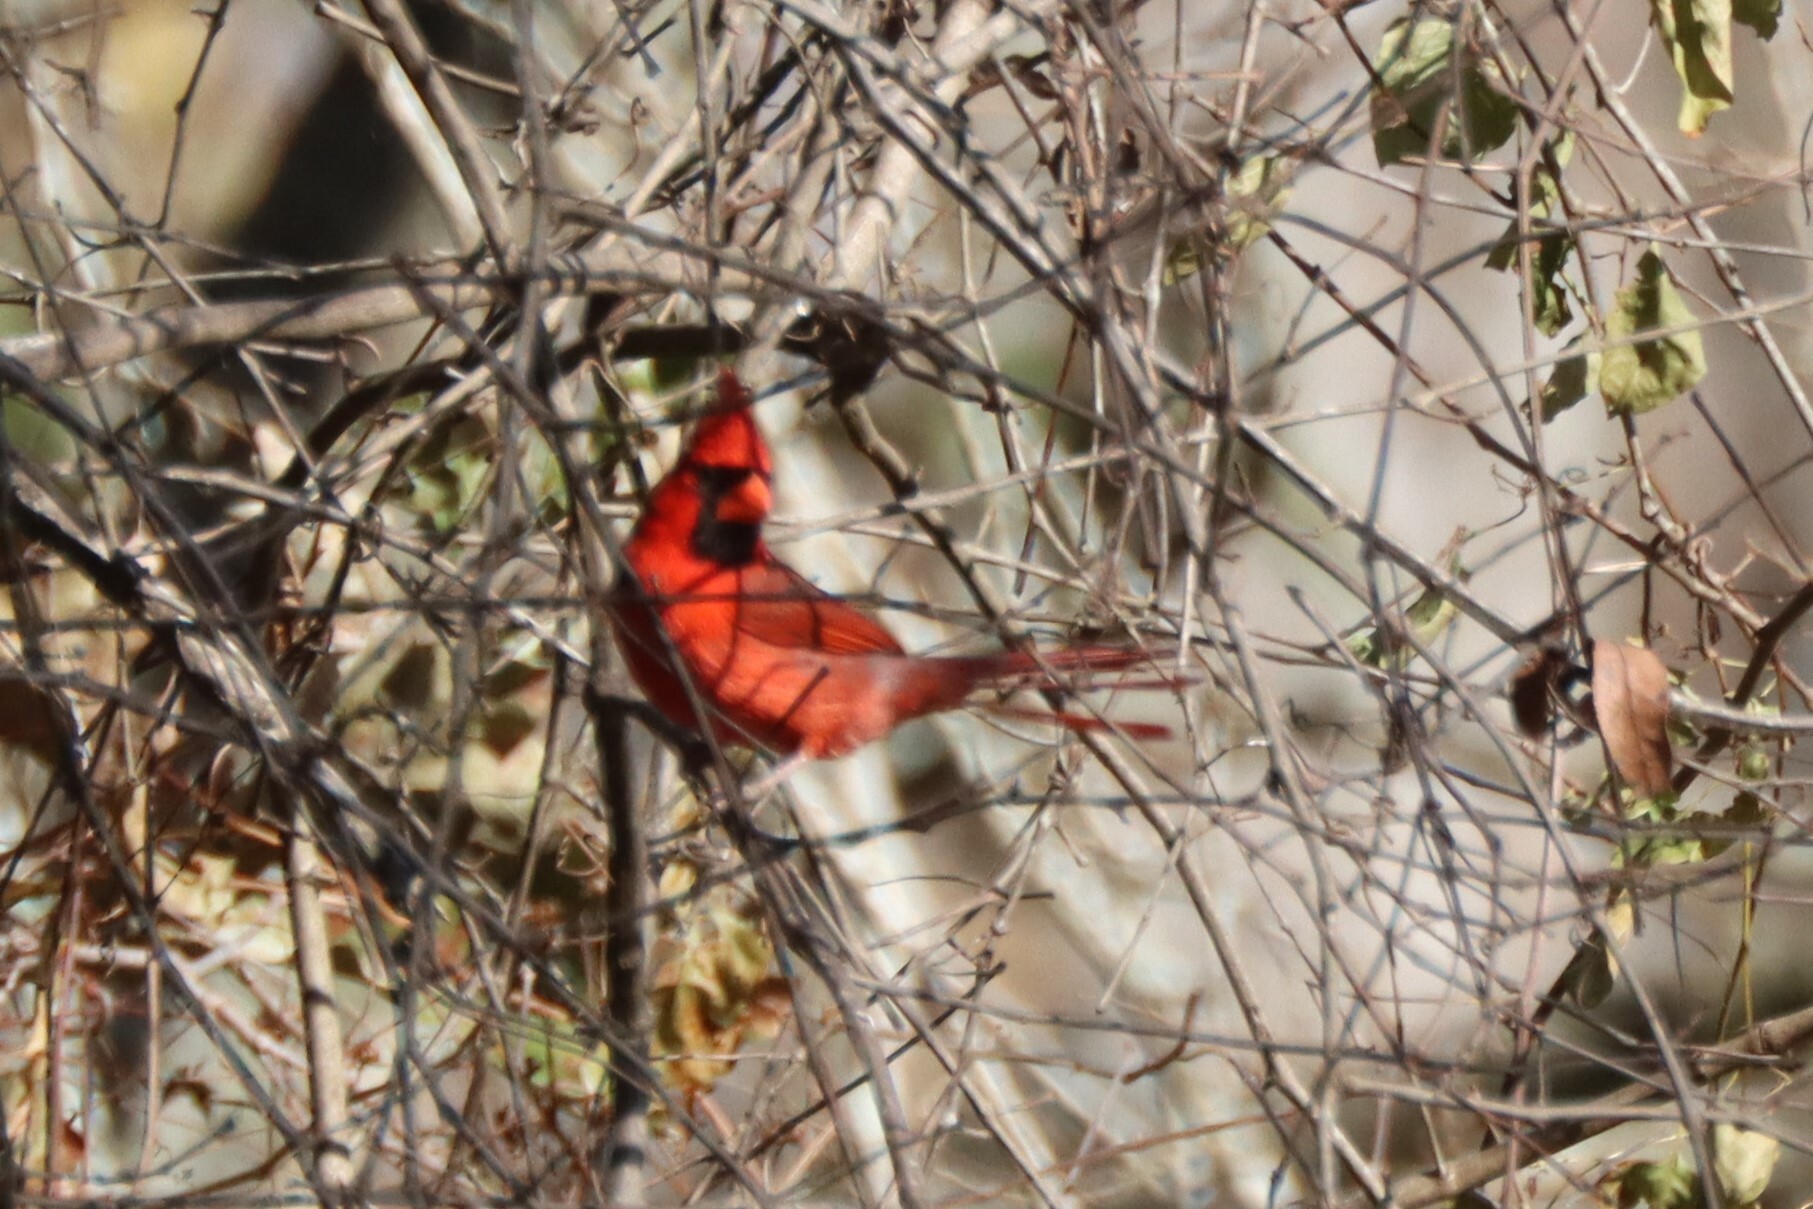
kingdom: Animalia
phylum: Chordata
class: Aves
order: Passeriformes
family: Cardinalidae
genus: Cardinalis
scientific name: Cardinalis cardinalis
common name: Northern cardinal
